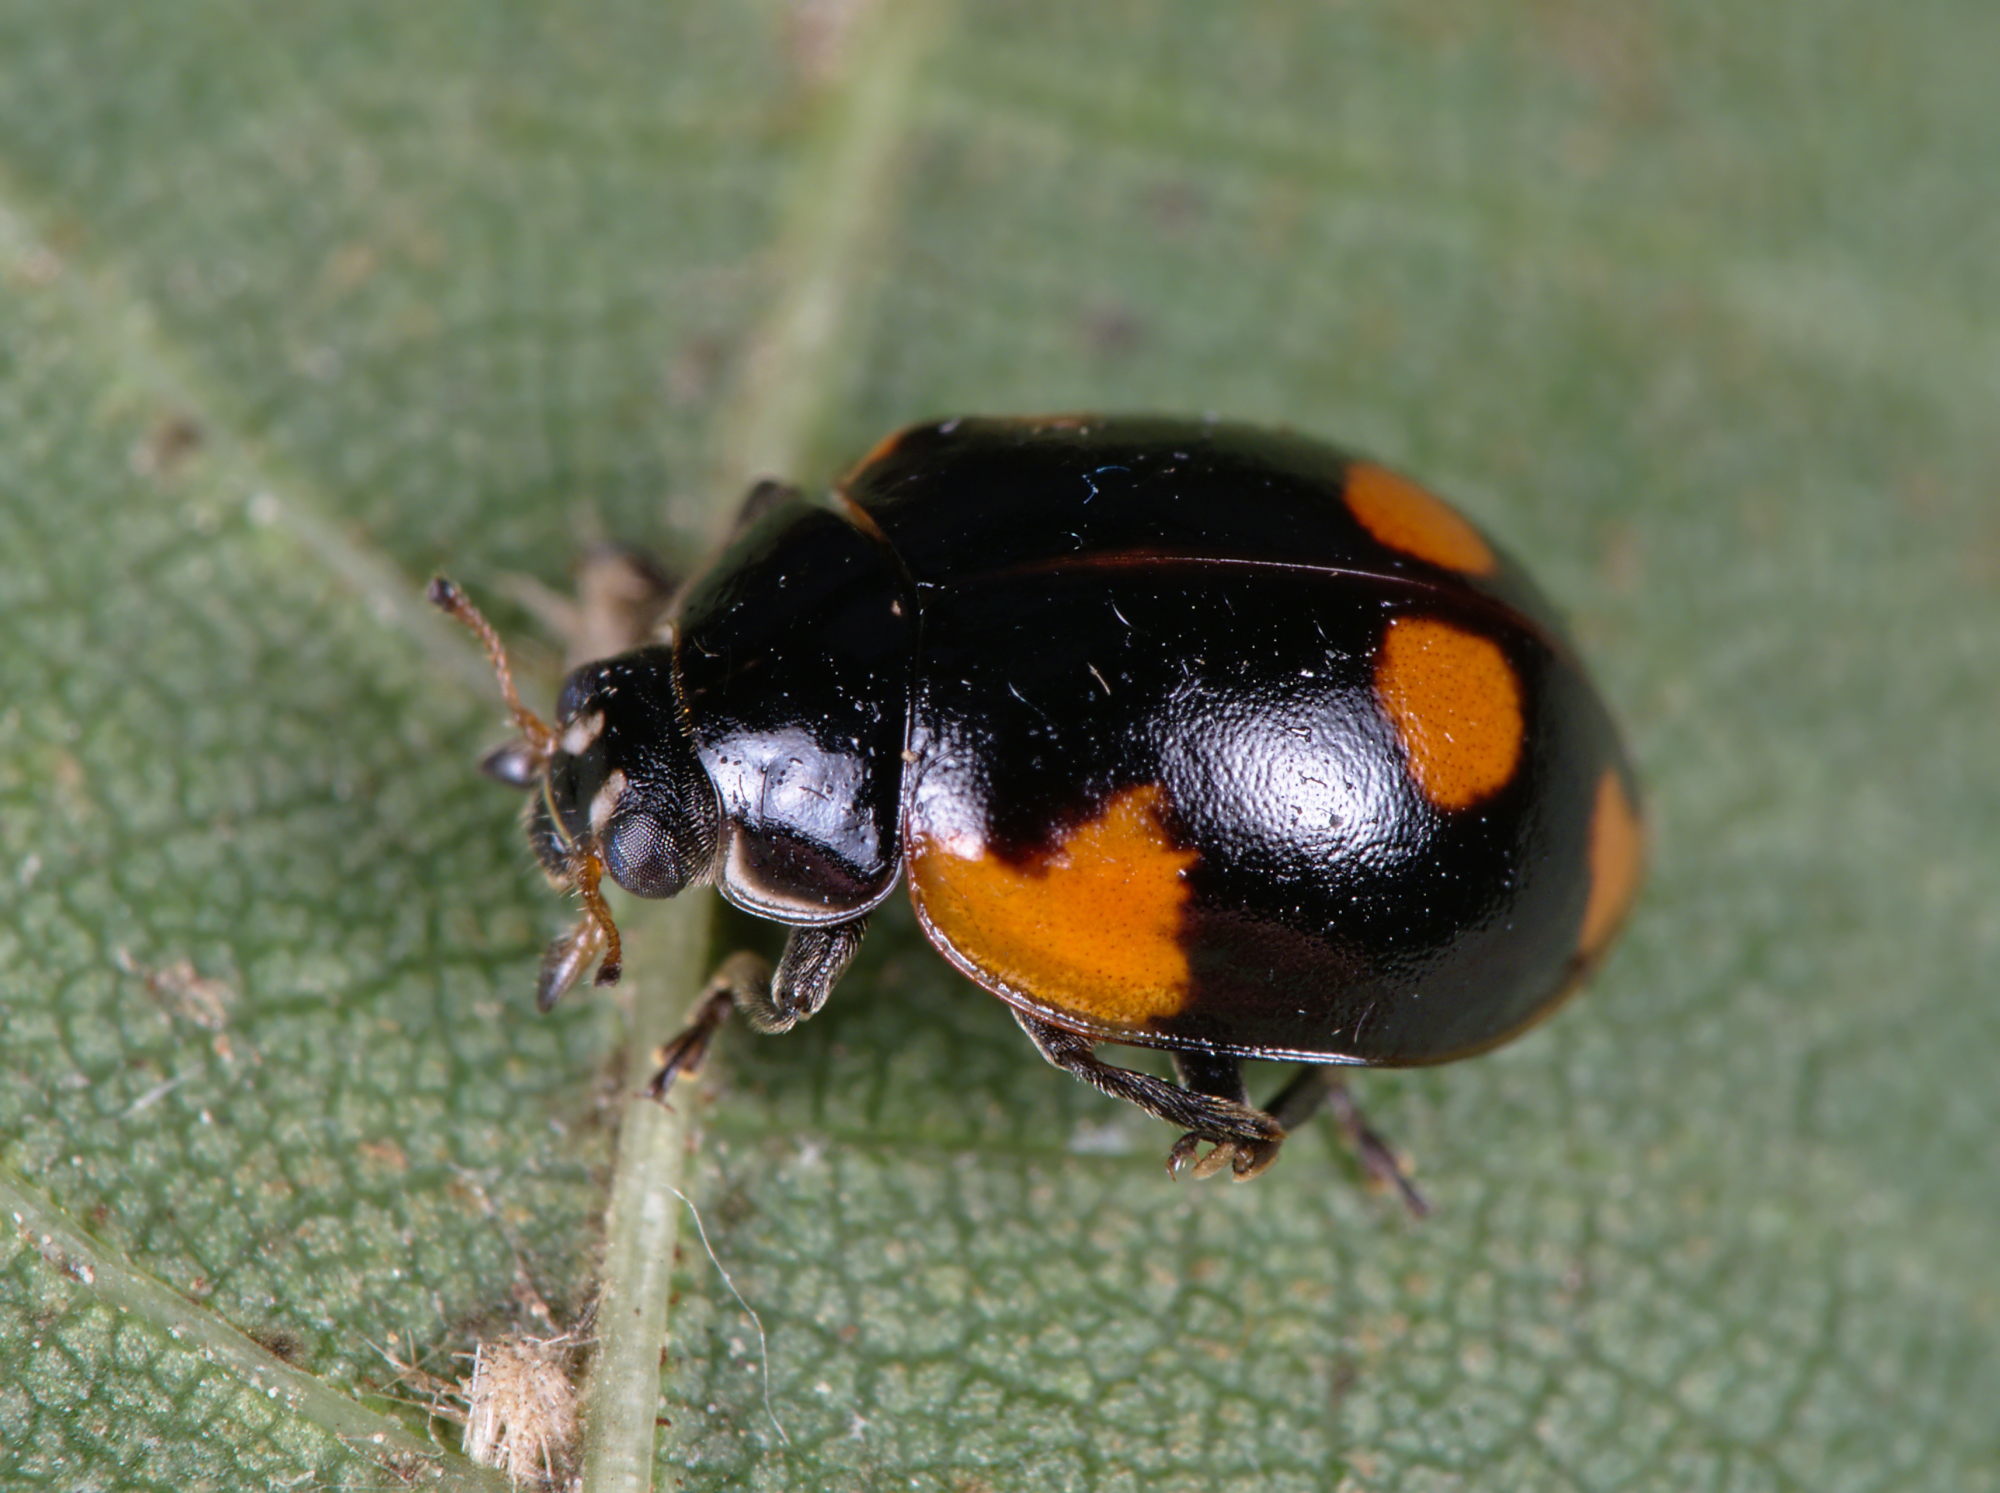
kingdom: Animalia
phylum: Arthropoda
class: Insecta
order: Coleoptera
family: Coccinellidae
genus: Adalia
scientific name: Adalia bipunctata
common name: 2-spot ladybird
